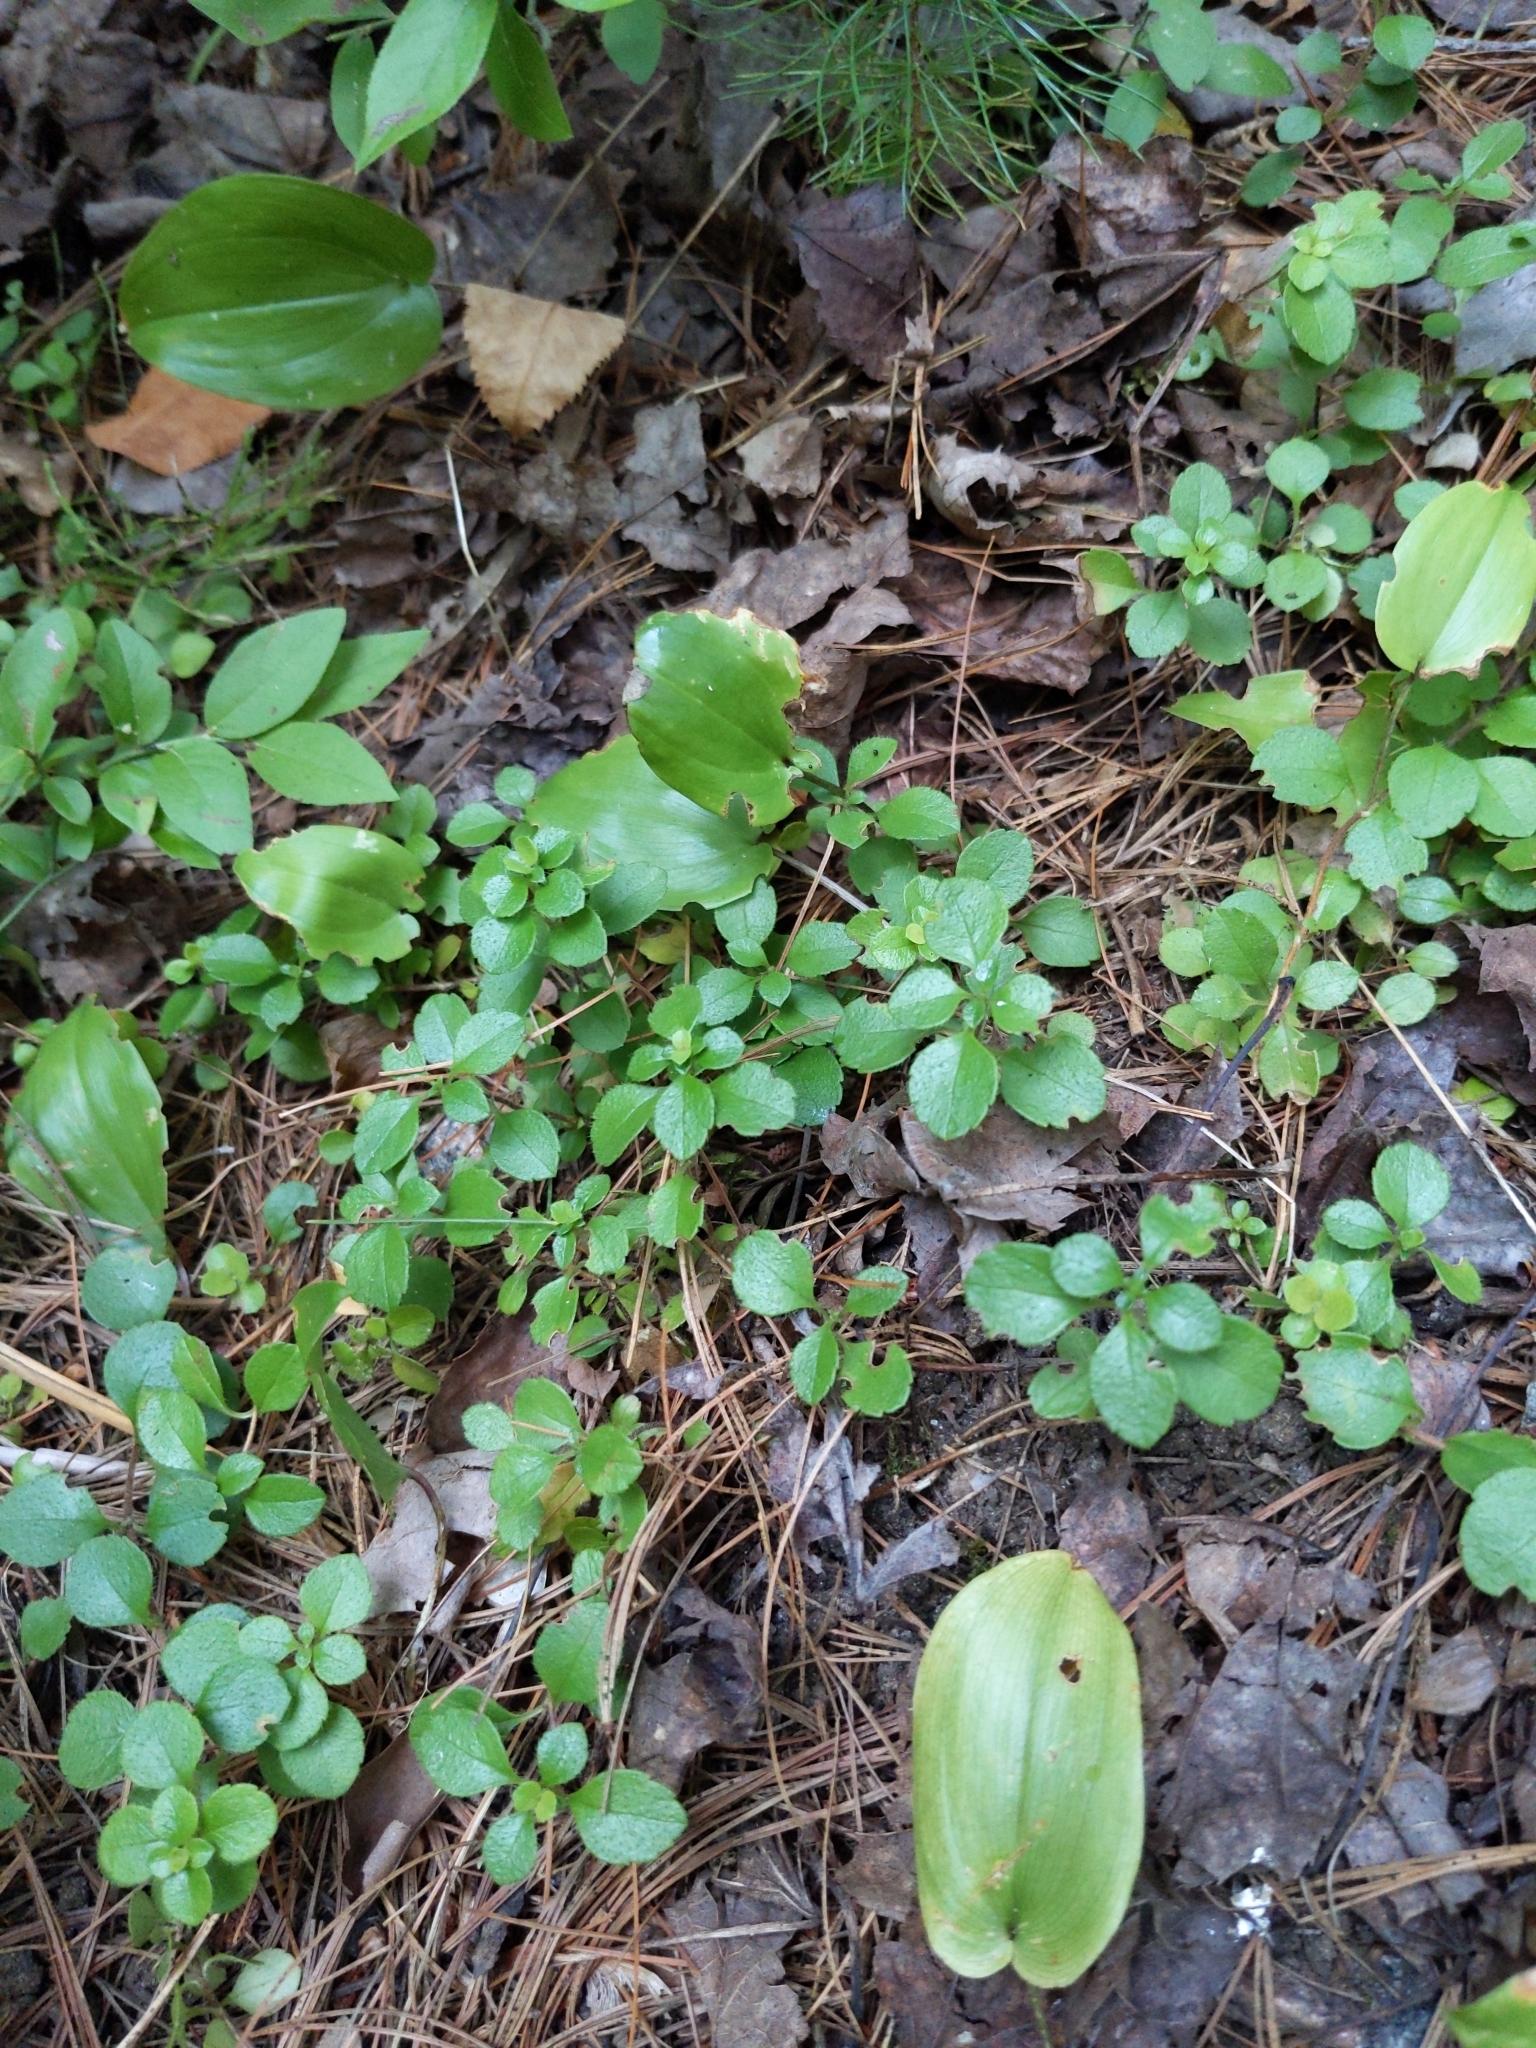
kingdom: Plantae
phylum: Tracheophyta
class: Magnoliopsida
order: Dipsacales
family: Caprifoliaceae
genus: Linnaea
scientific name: Linnaea borealis
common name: Twinflower
